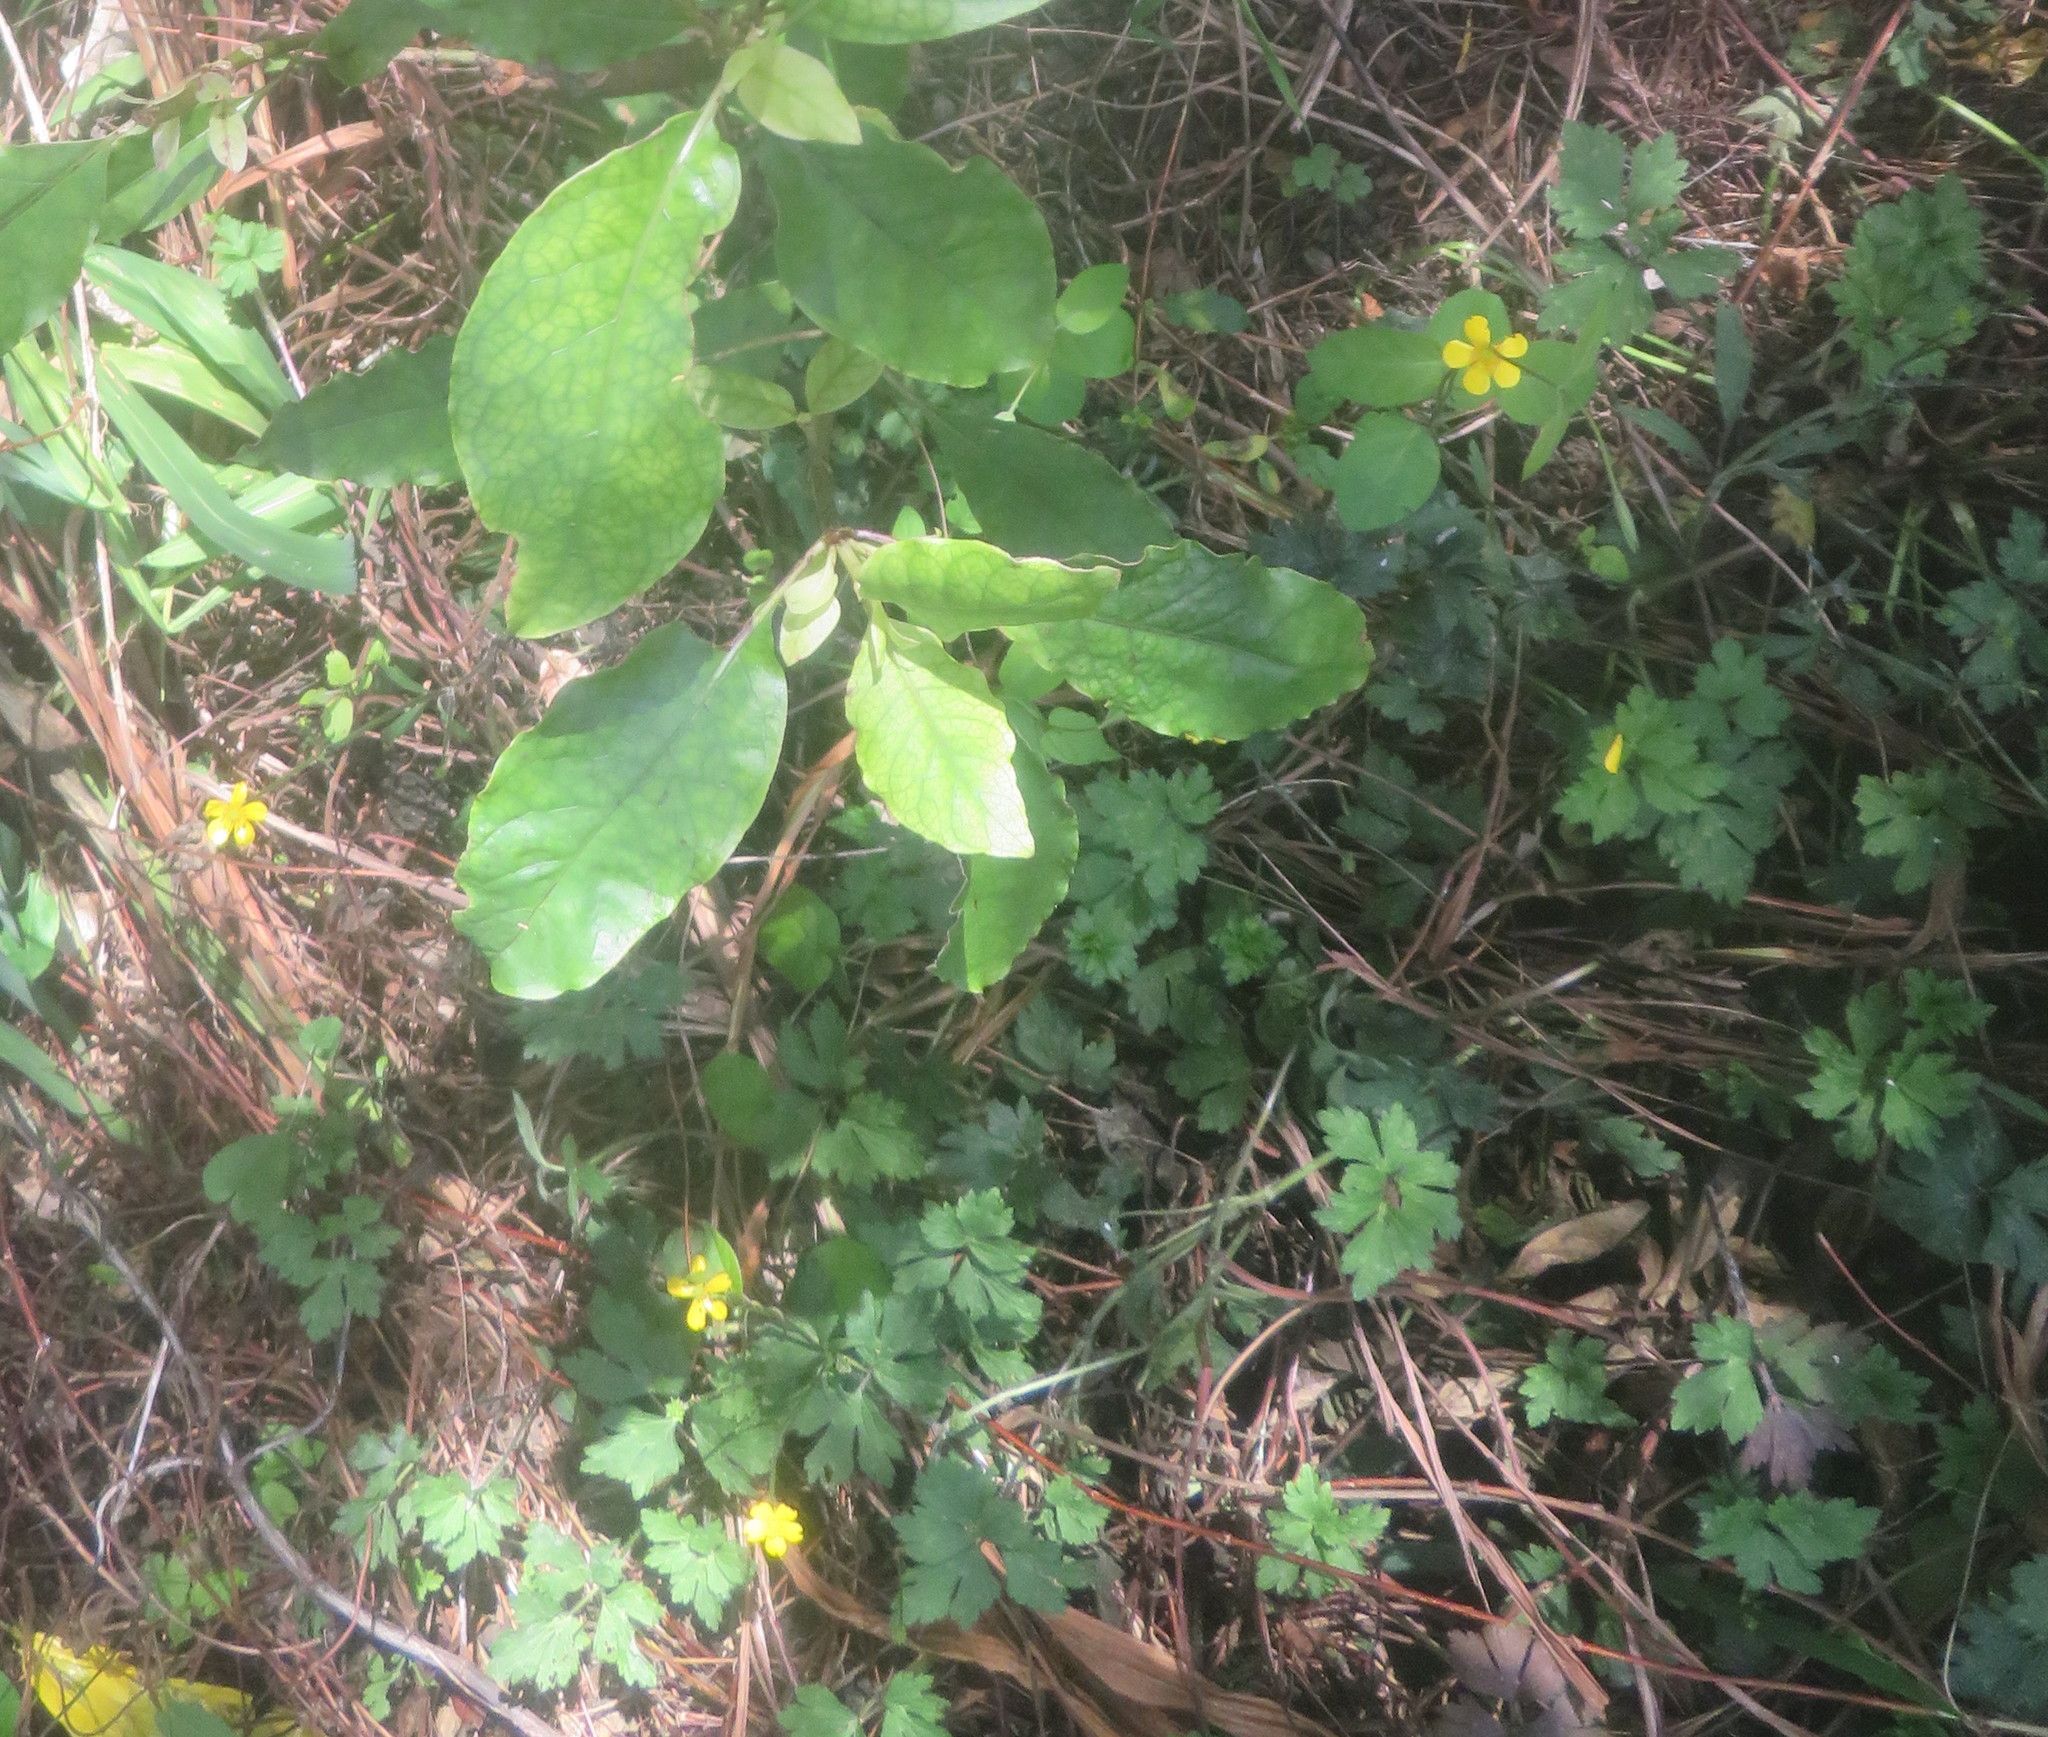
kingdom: Plantae
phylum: Tracheophyta
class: Magnoliopsida
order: Gentianales
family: Rubiaceae
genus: Coprosma
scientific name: Coprosma autumnalis
